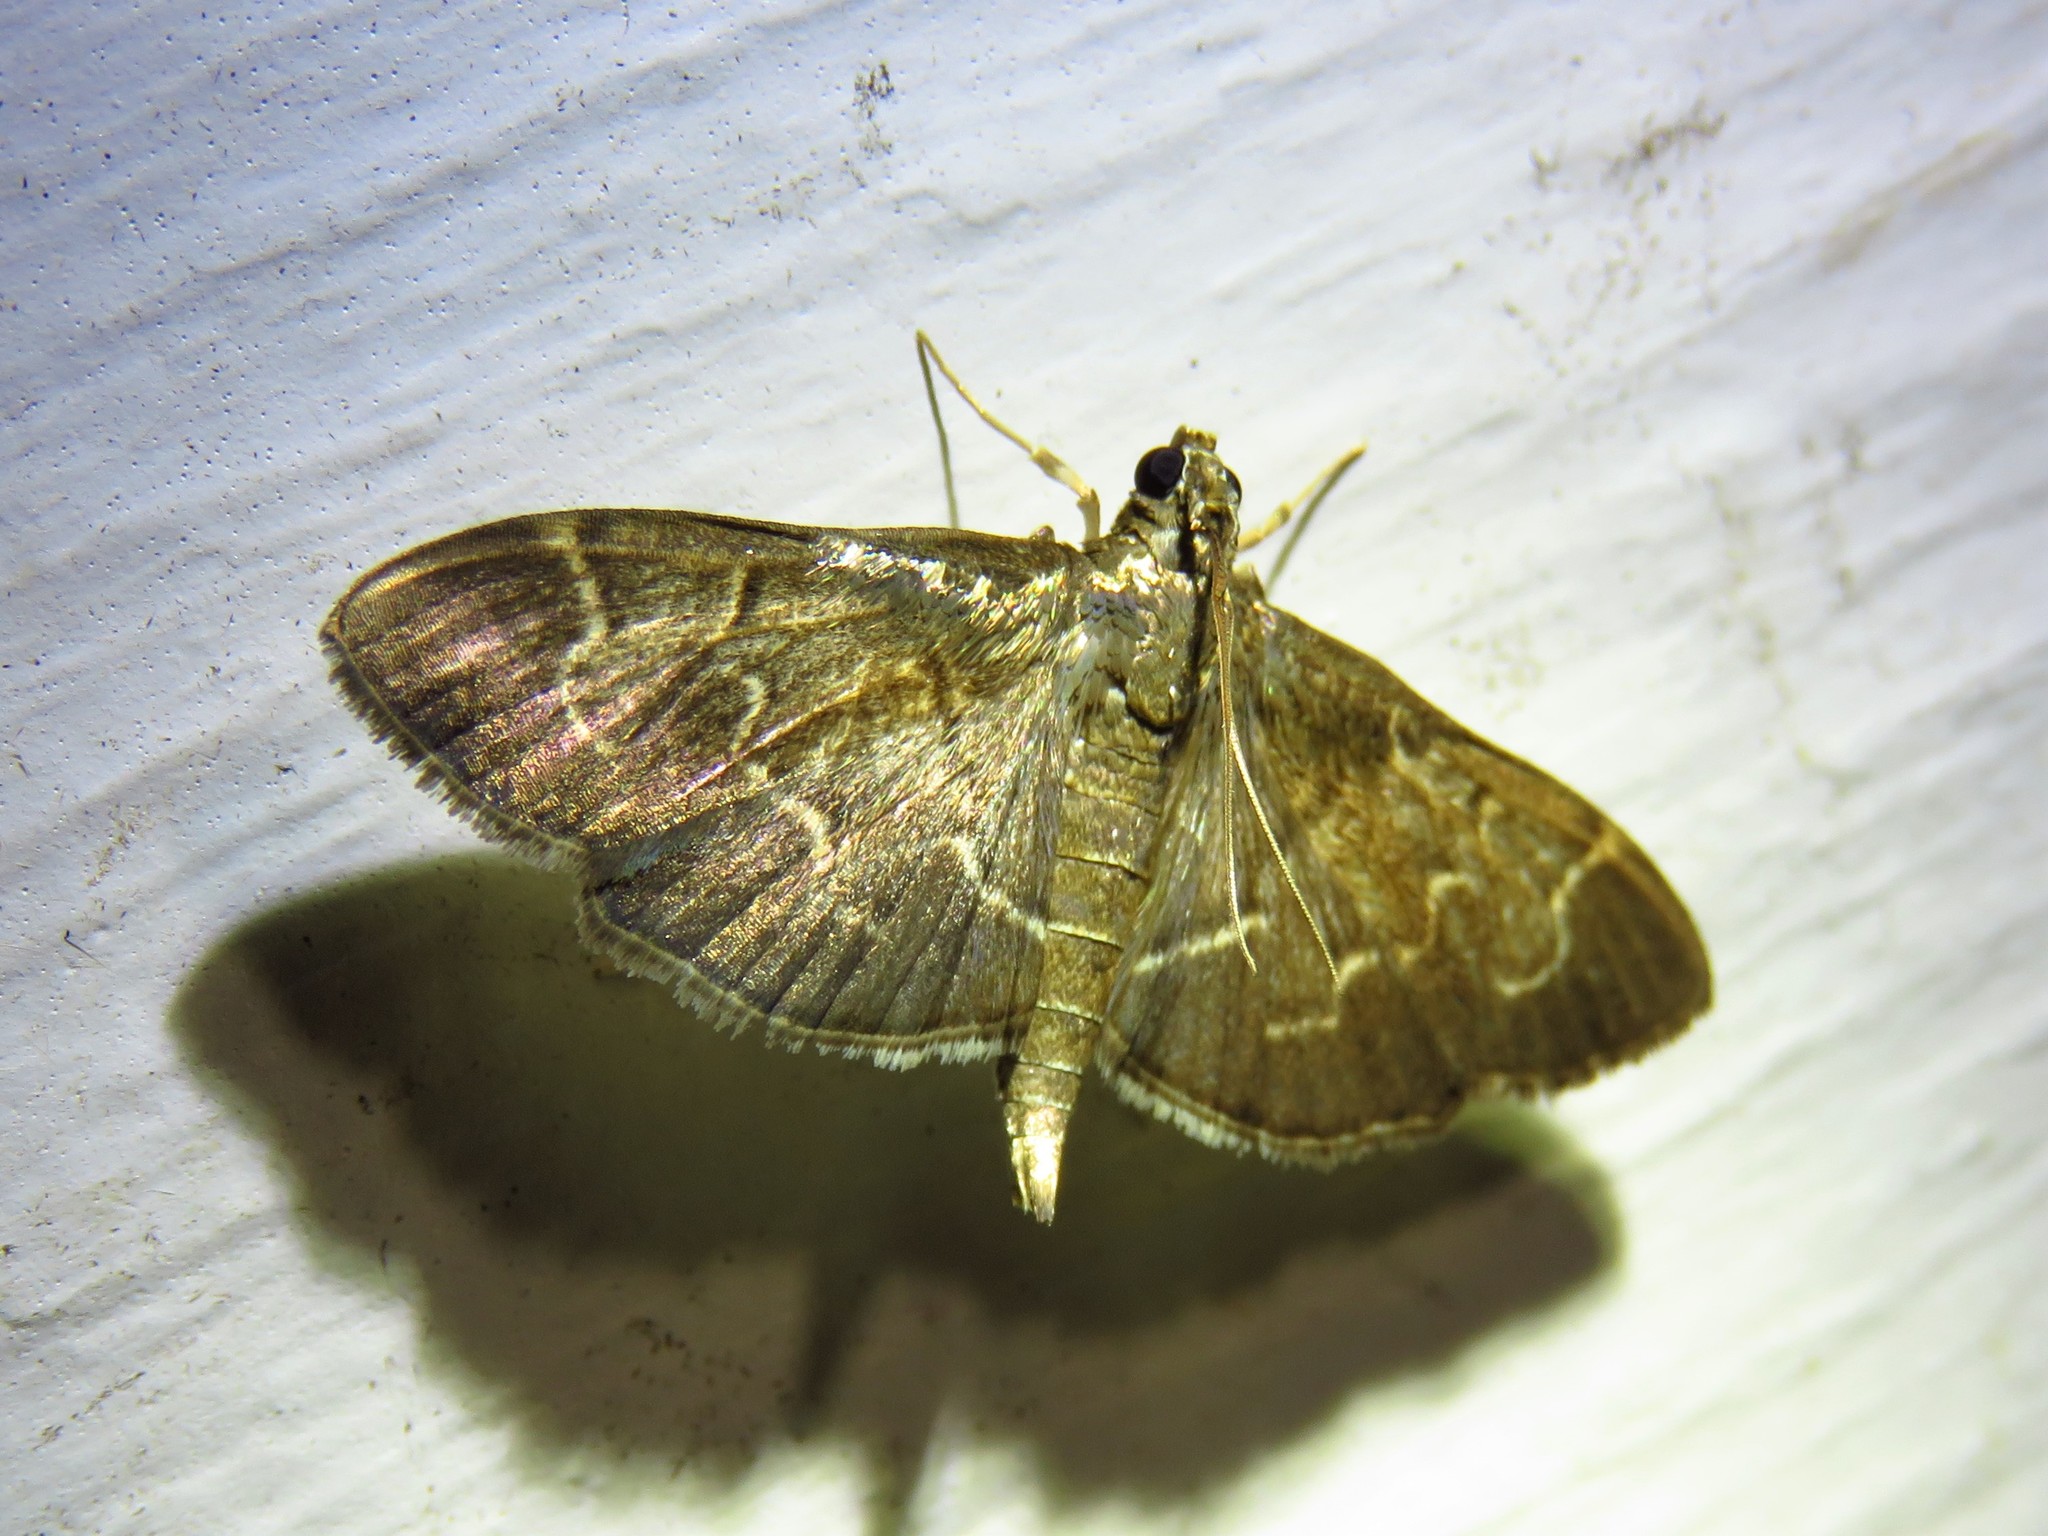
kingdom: Animalia
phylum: Arthropoda
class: Insecta
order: Lepidoptera
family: Crambidae
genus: Pilocrocis
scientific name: Pilocrocis ramentalis
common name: Scraped pilocrocis
